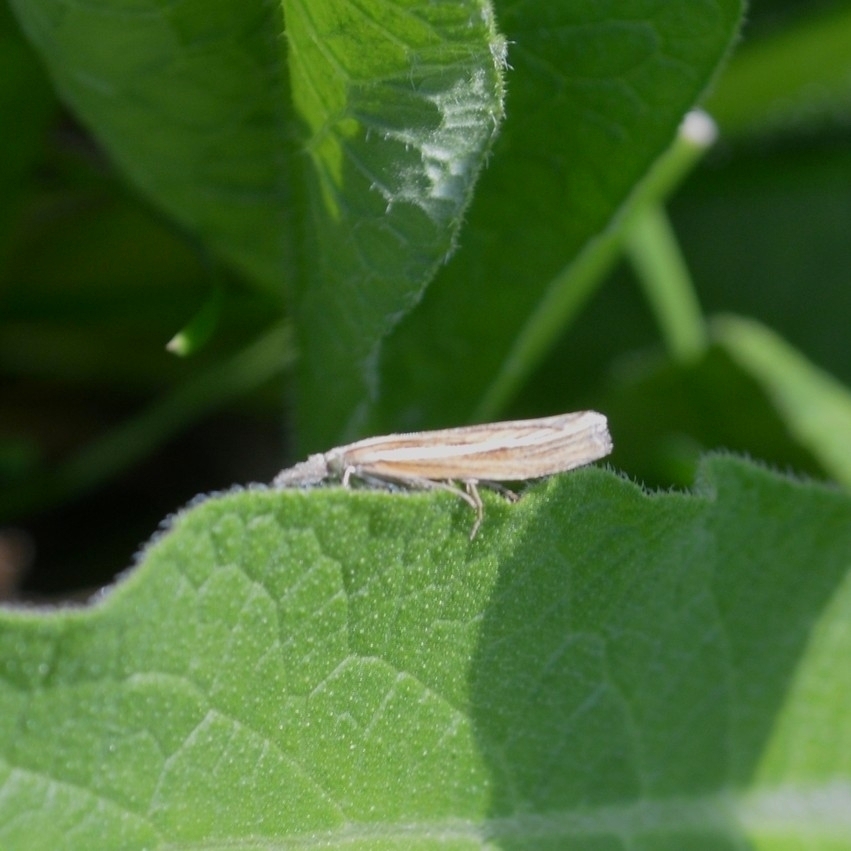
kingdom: Animalia
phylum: Arthropoda
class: Insecta
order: Lepidoptera
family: Crambidae
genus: Agriphila
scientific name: Agriphila tristellus
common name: Common grass-veneer
